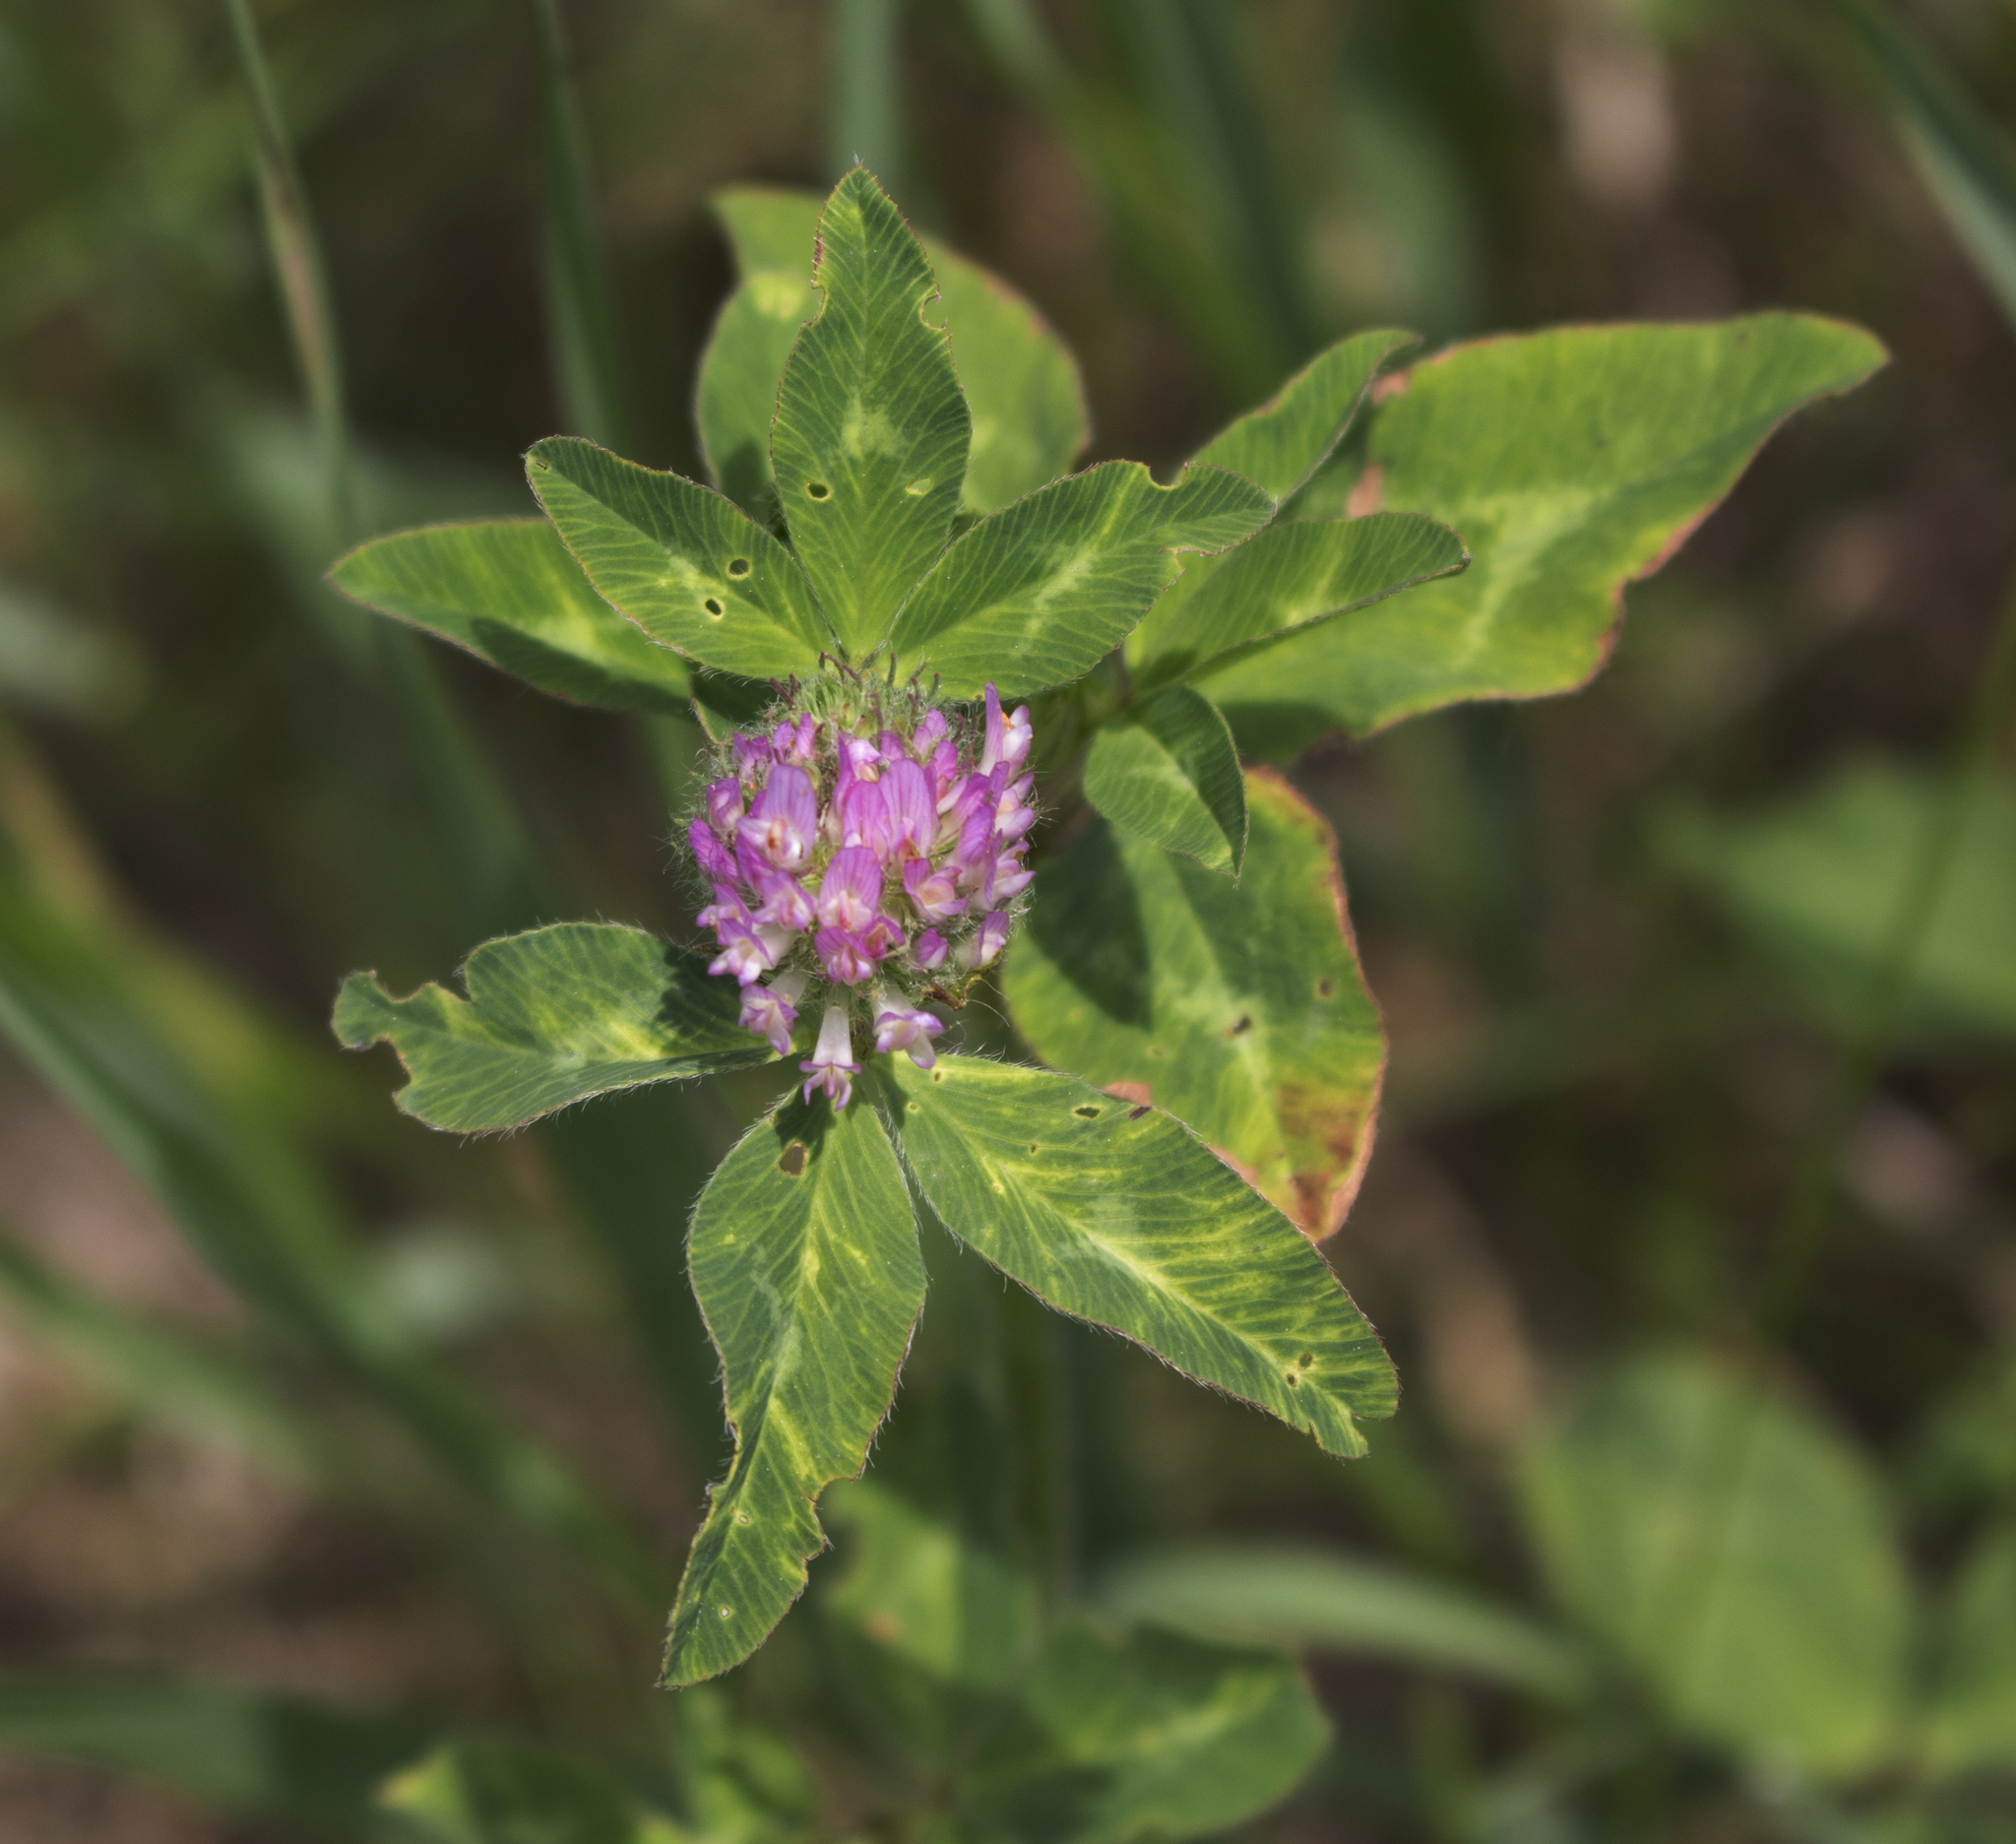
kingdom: Plantae
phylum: Tracheophyta
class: Magnoliopsida
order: Fabales
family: Fabaceae
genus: Trifolium
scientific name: Trifolium pratense
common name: Red clover
